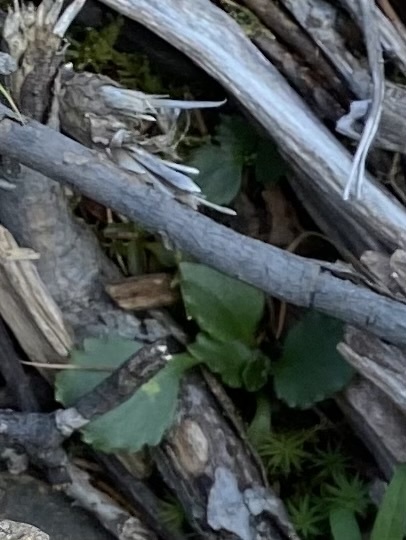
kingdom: Plantae
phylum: Tracheophyta
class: Magnoliopsida
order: Saxifragales
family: Saxifragaceae
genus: Micranthes
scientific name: Micranthes nivalis
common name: Alpine saxifrage
